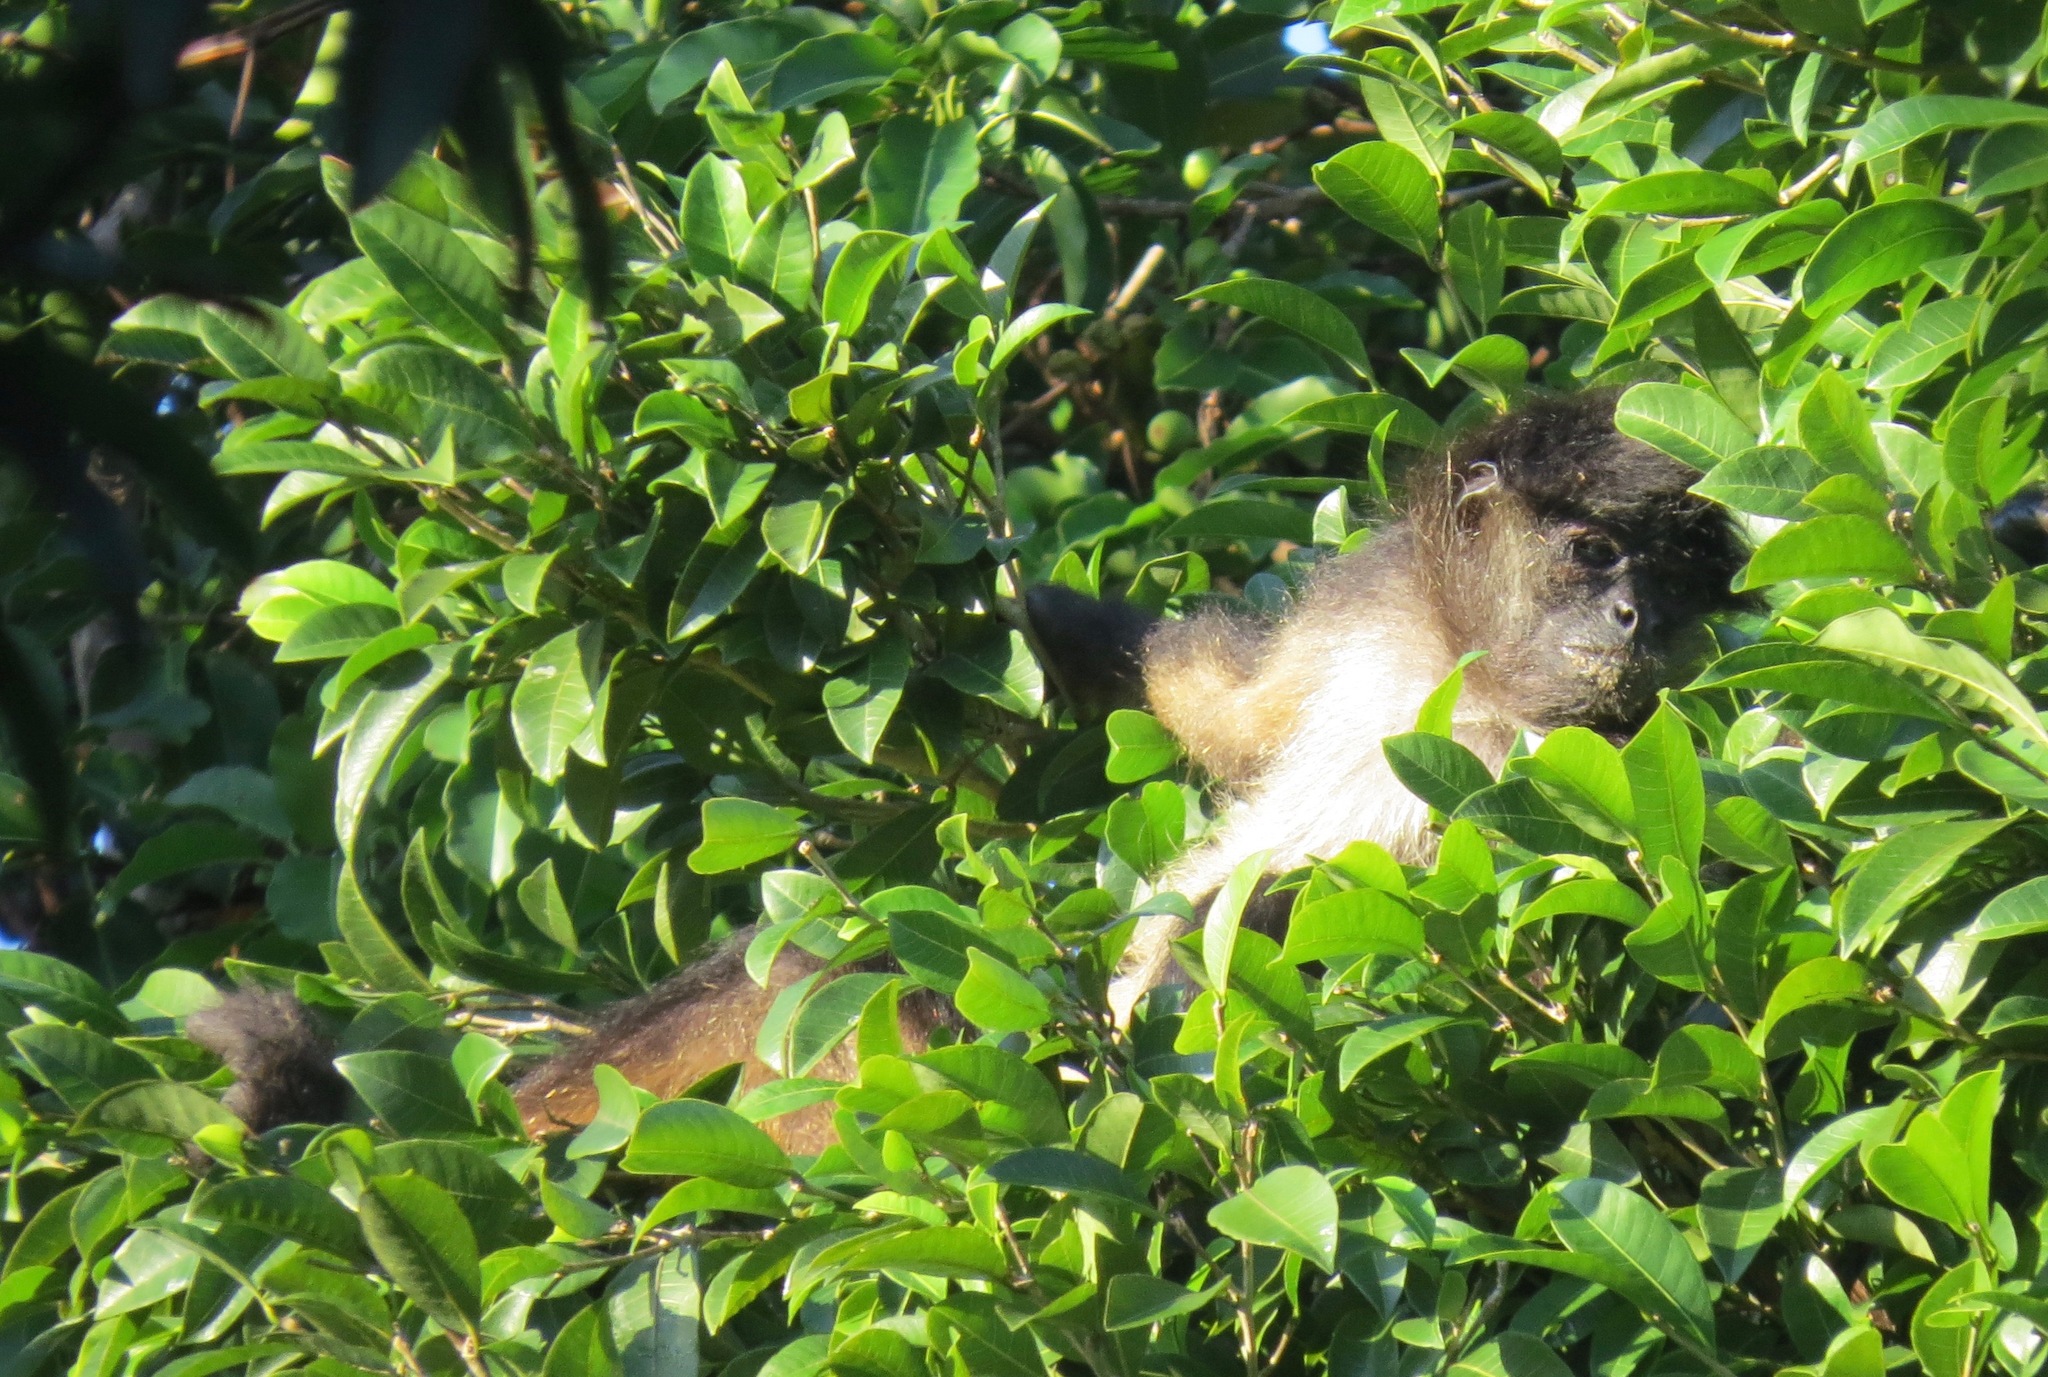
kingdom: Animalia
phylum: Chordata
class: Mammalia
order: Primates
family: Atelidae
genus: Ateles
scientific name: Ateles geoffroyi
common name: Black-handed spider monkey
